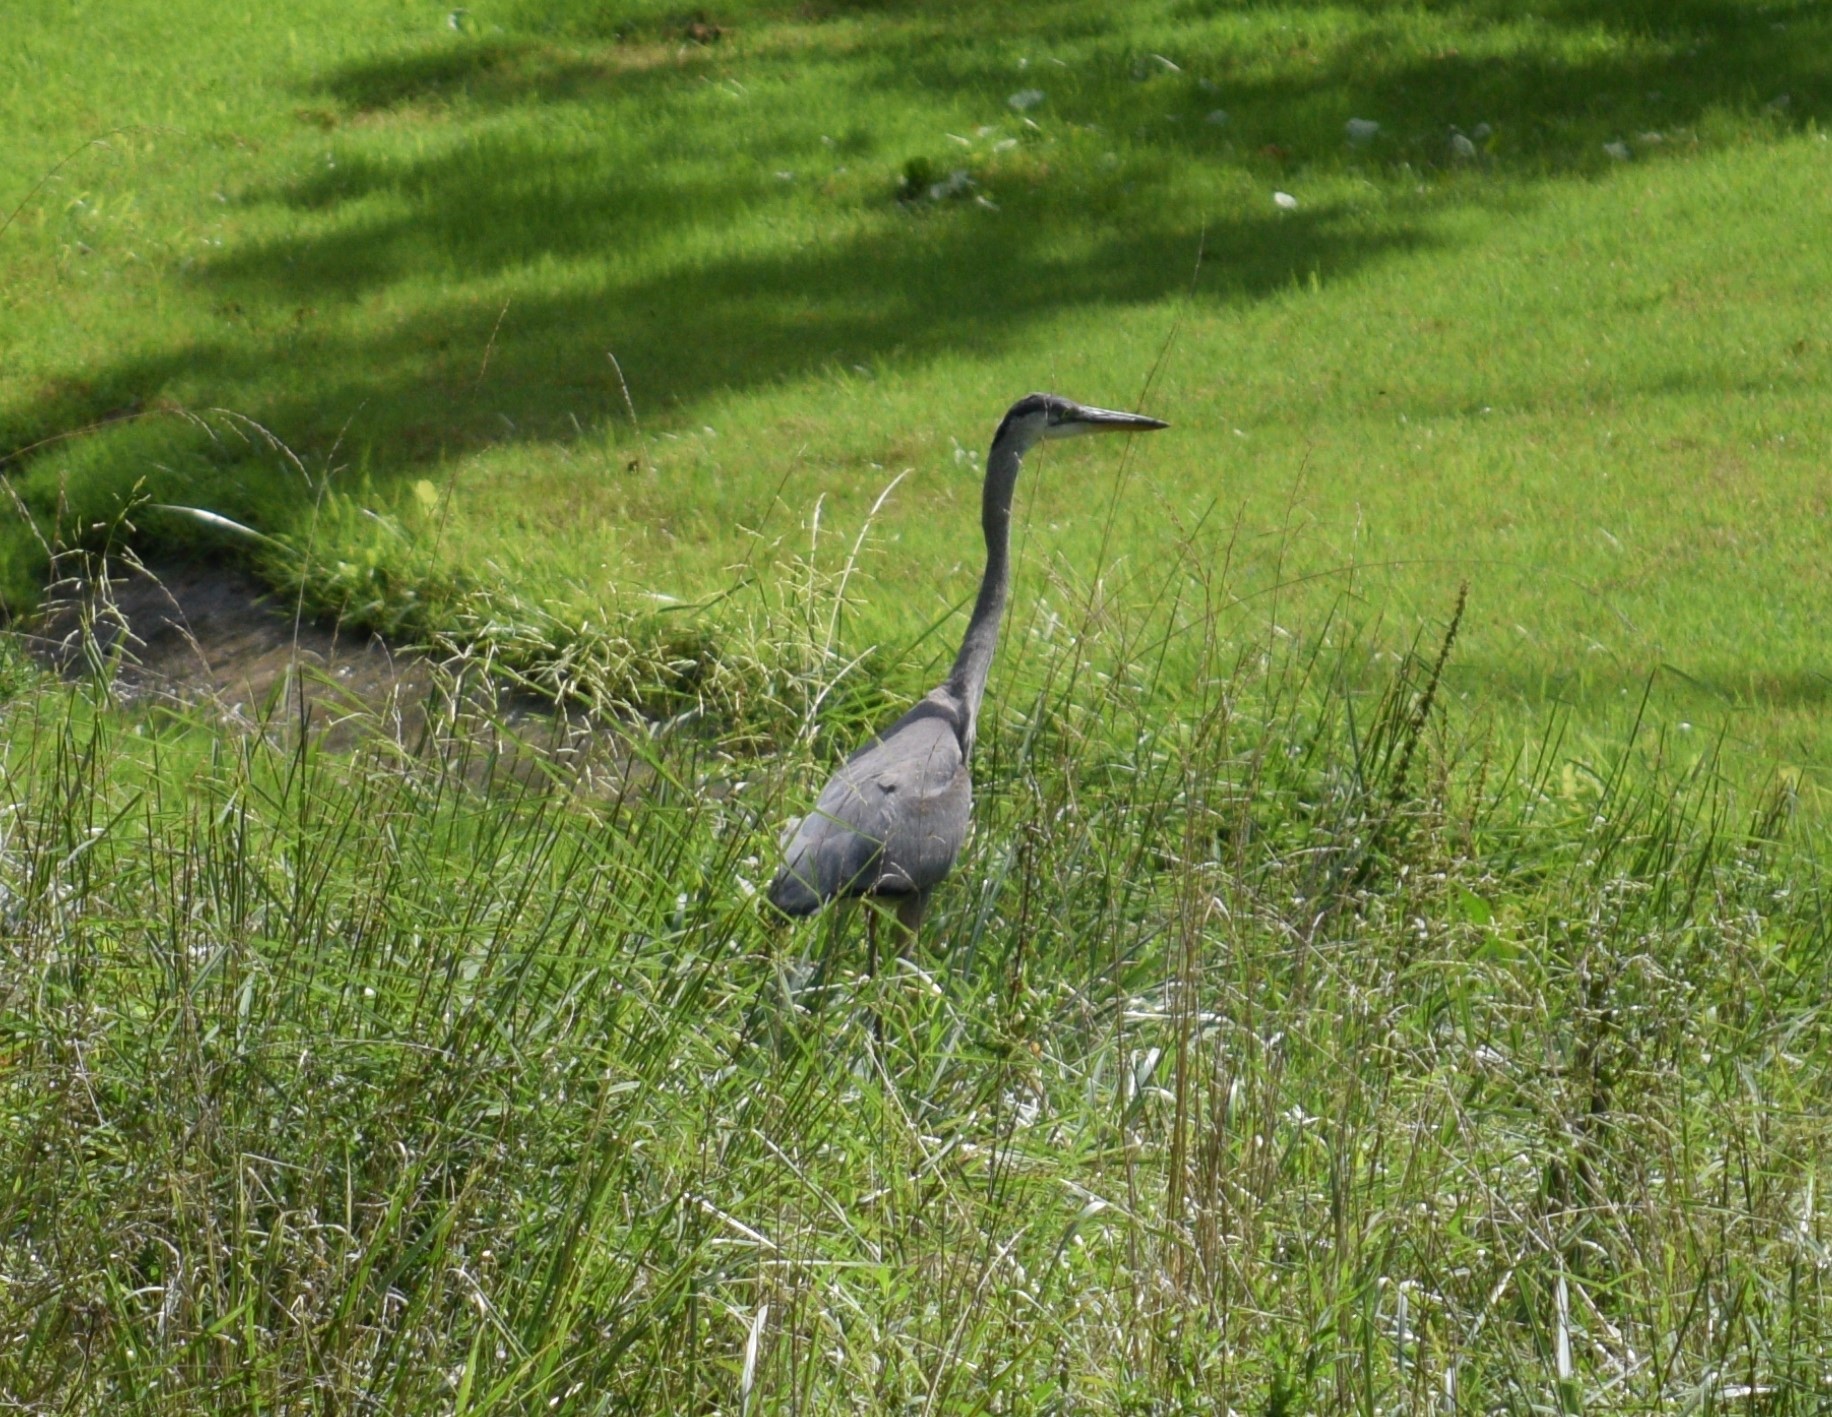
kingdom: Animalia
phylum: Chordata
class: Aves
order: Pelecaniformes
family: Ardeidae
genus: Ardea
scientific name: Ardea herodias
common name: Great blue heron
